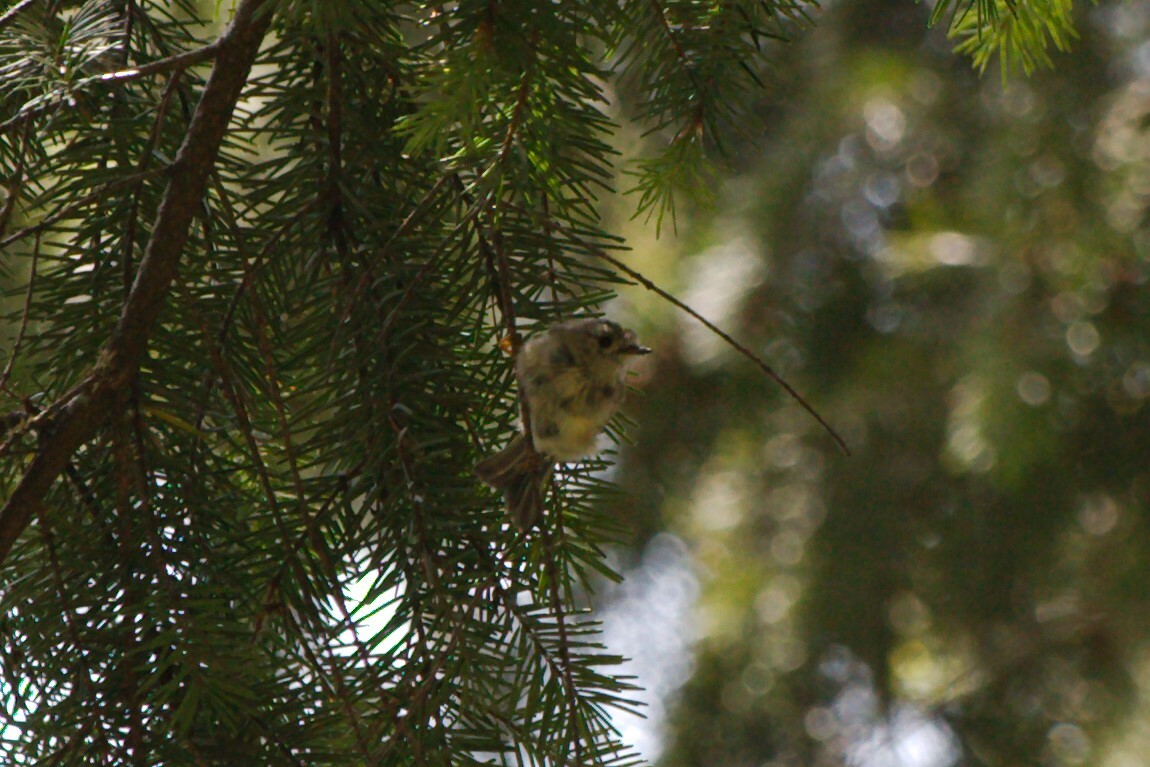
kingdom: Animalia
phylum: Chordata
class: Aves
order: Passeriformes
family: Regulidae
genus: Regulus
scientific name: Regulus regulus
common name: Goldcrest
